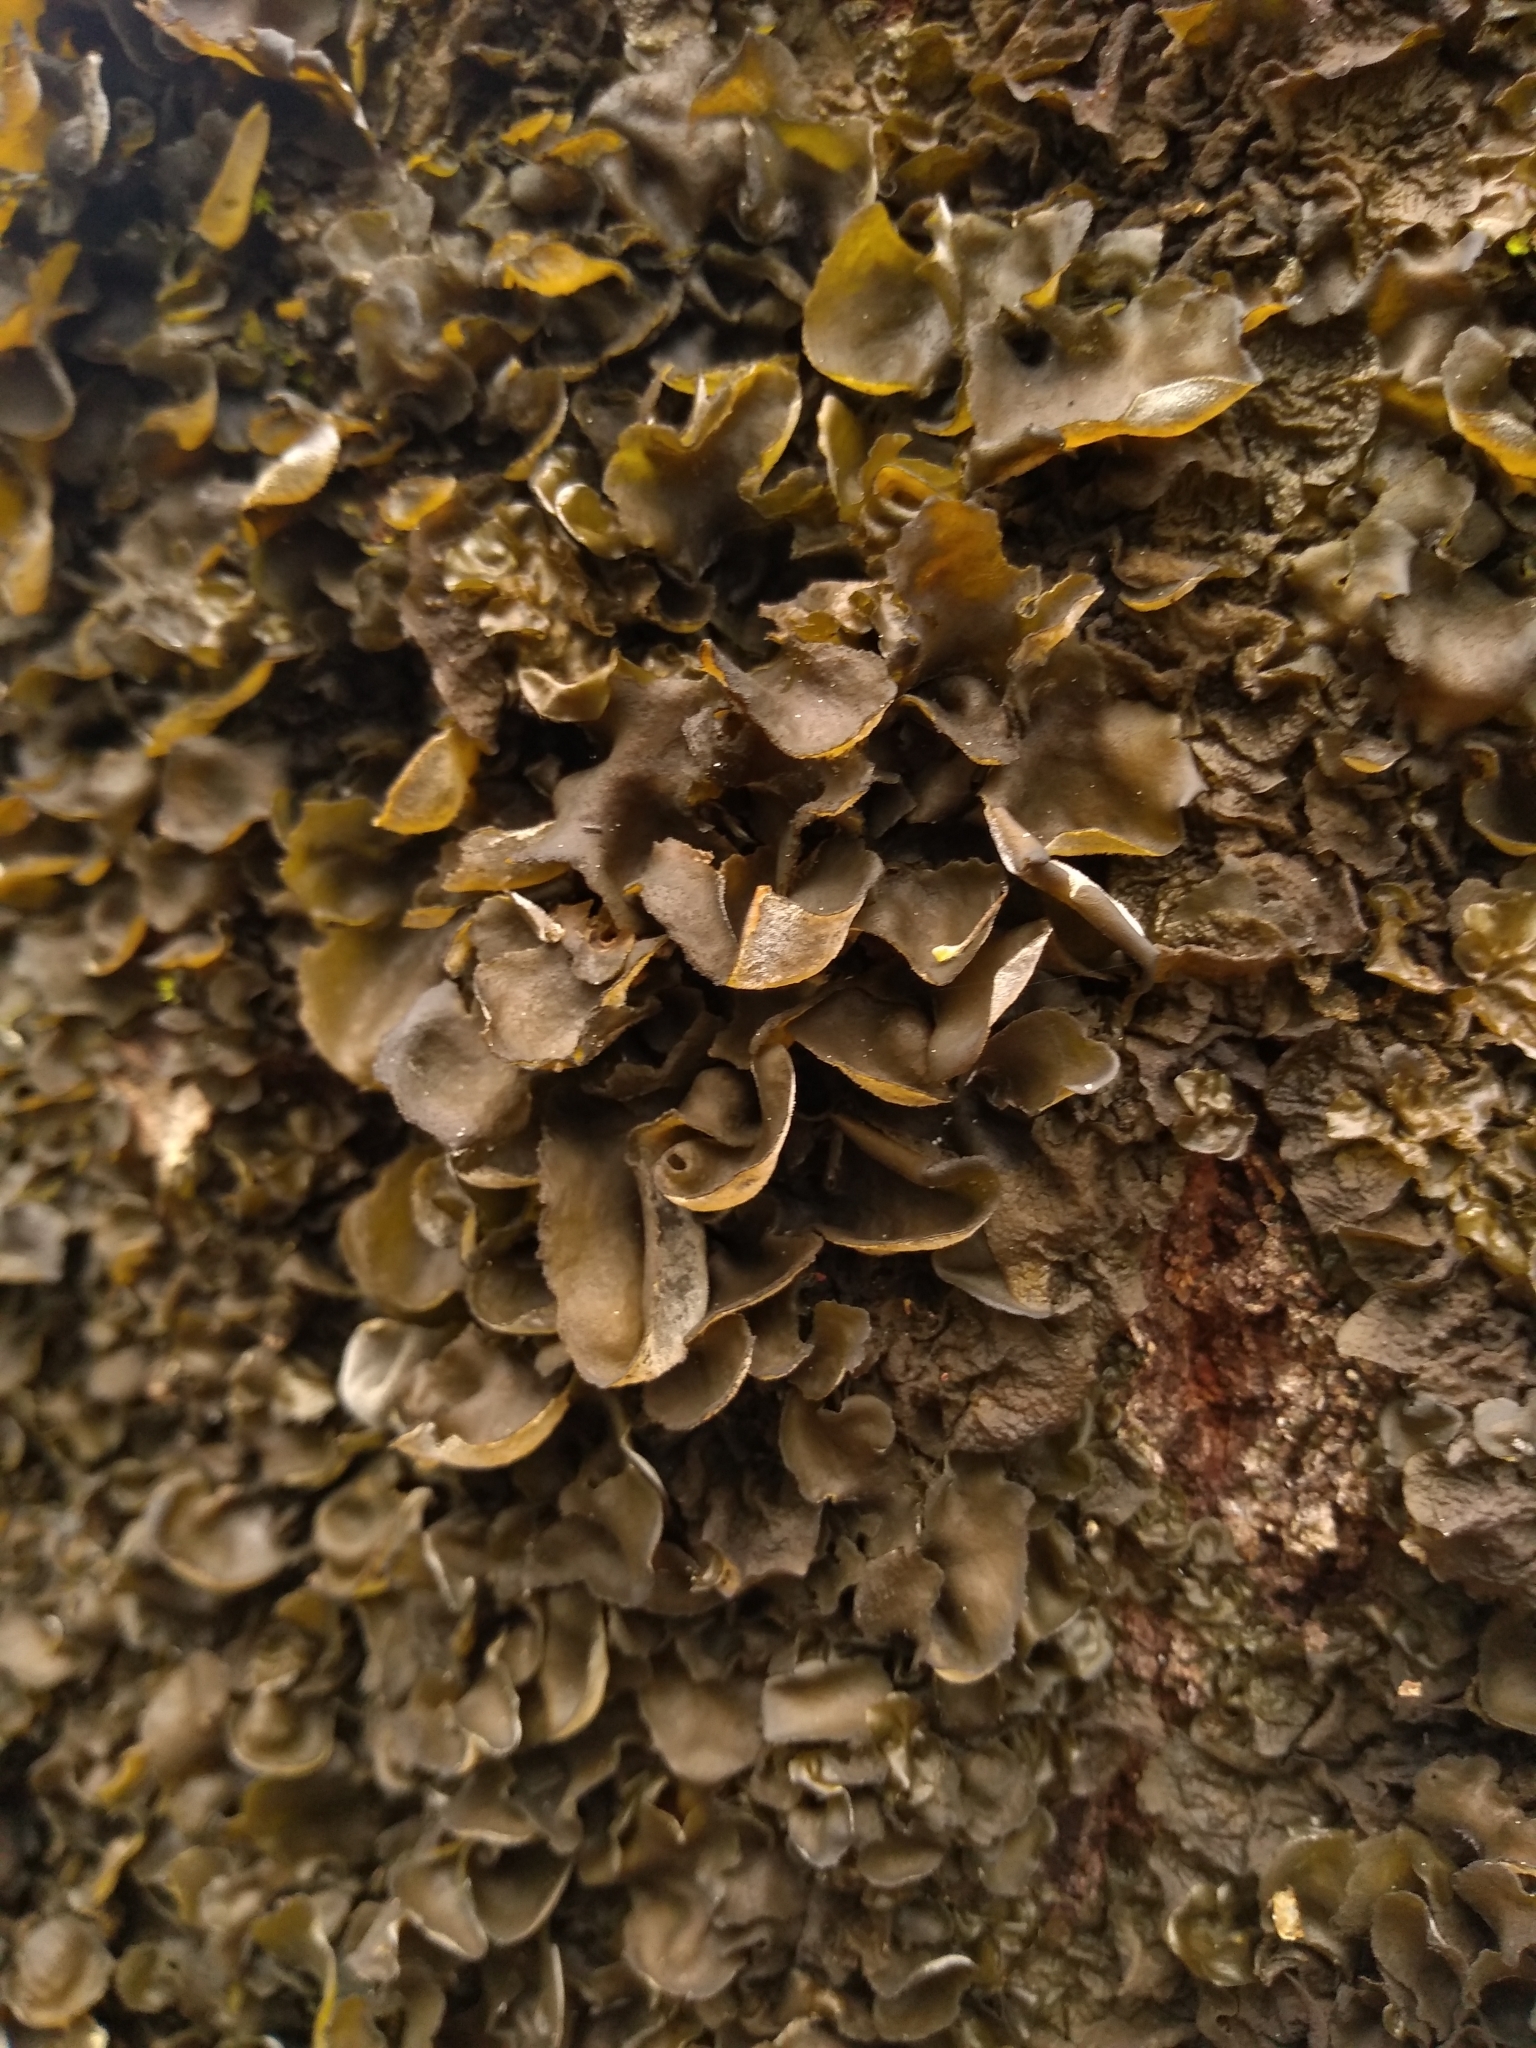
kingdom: Fungi
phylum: Ascomycota
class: Lecanoromycetes
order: Peltigerales
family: Collemataceae
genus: Leptogium
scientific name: Leptogium acadiense
